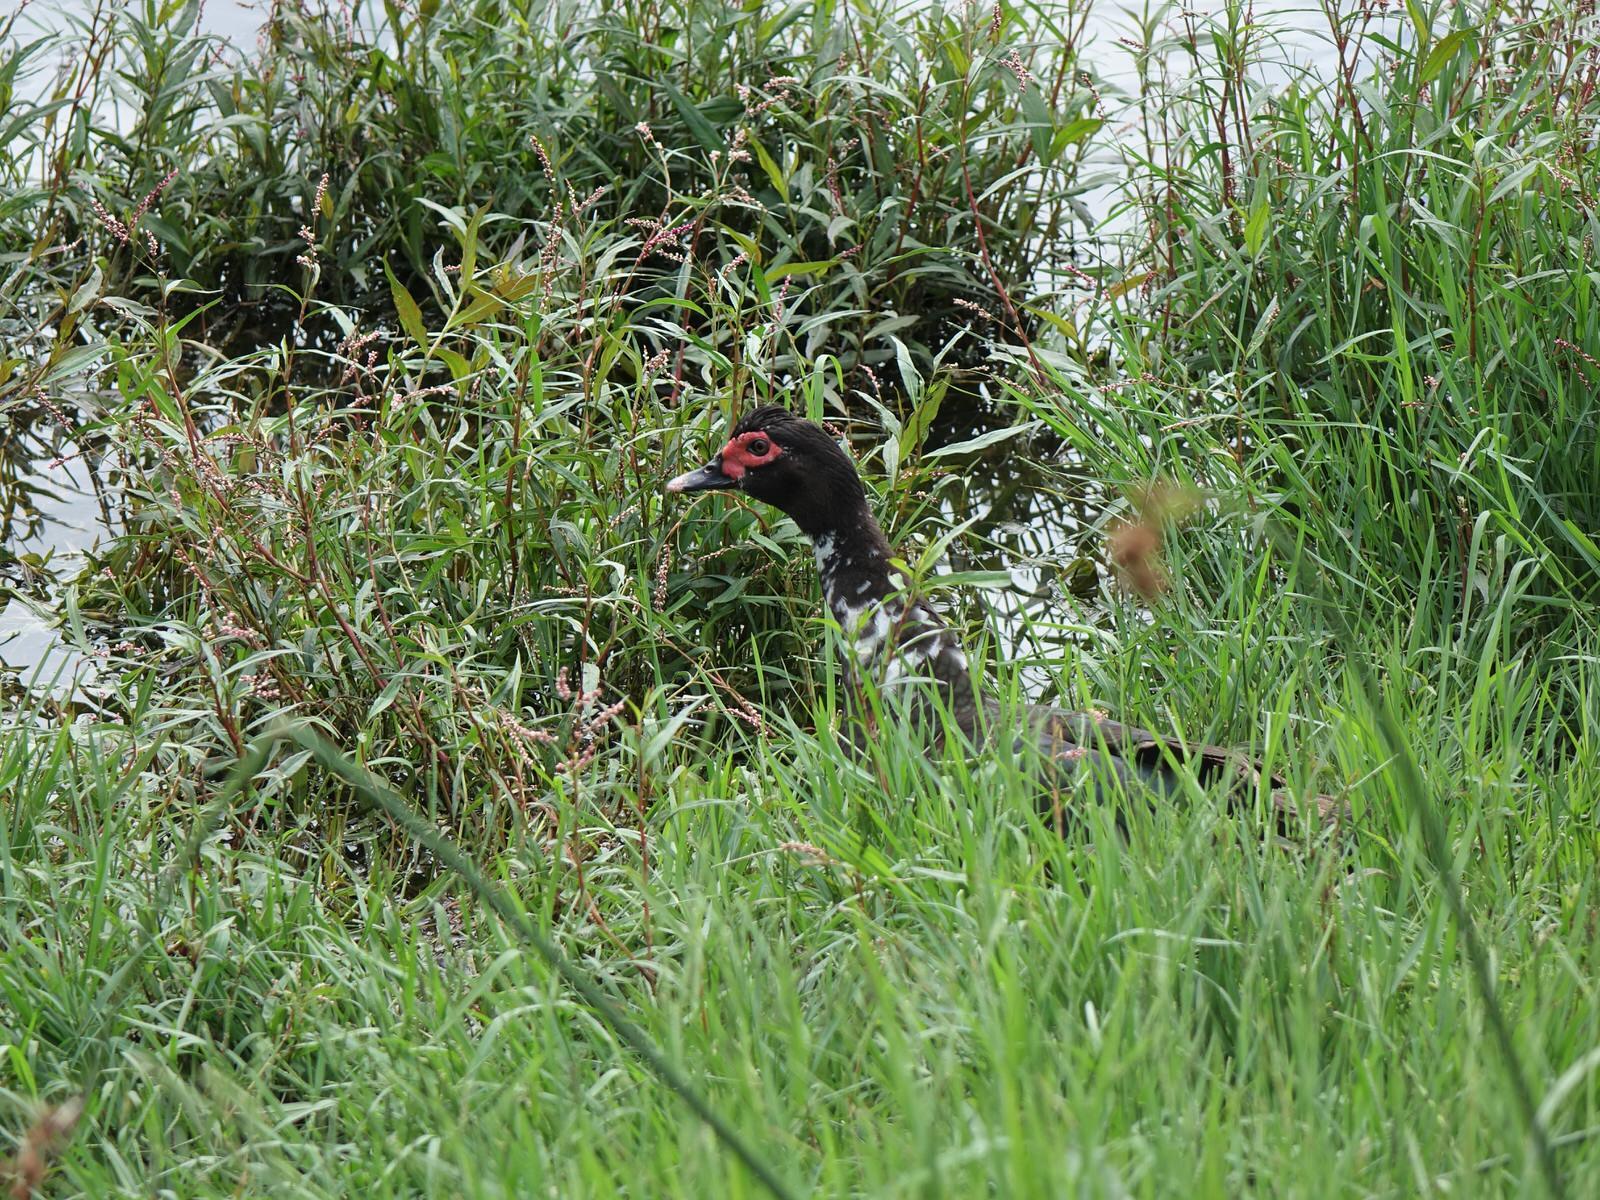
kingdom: Animalia
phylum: Chordata
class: Aves
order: Anseriformes
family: Anatidae
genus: Cairina
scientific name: Cairina moschata
